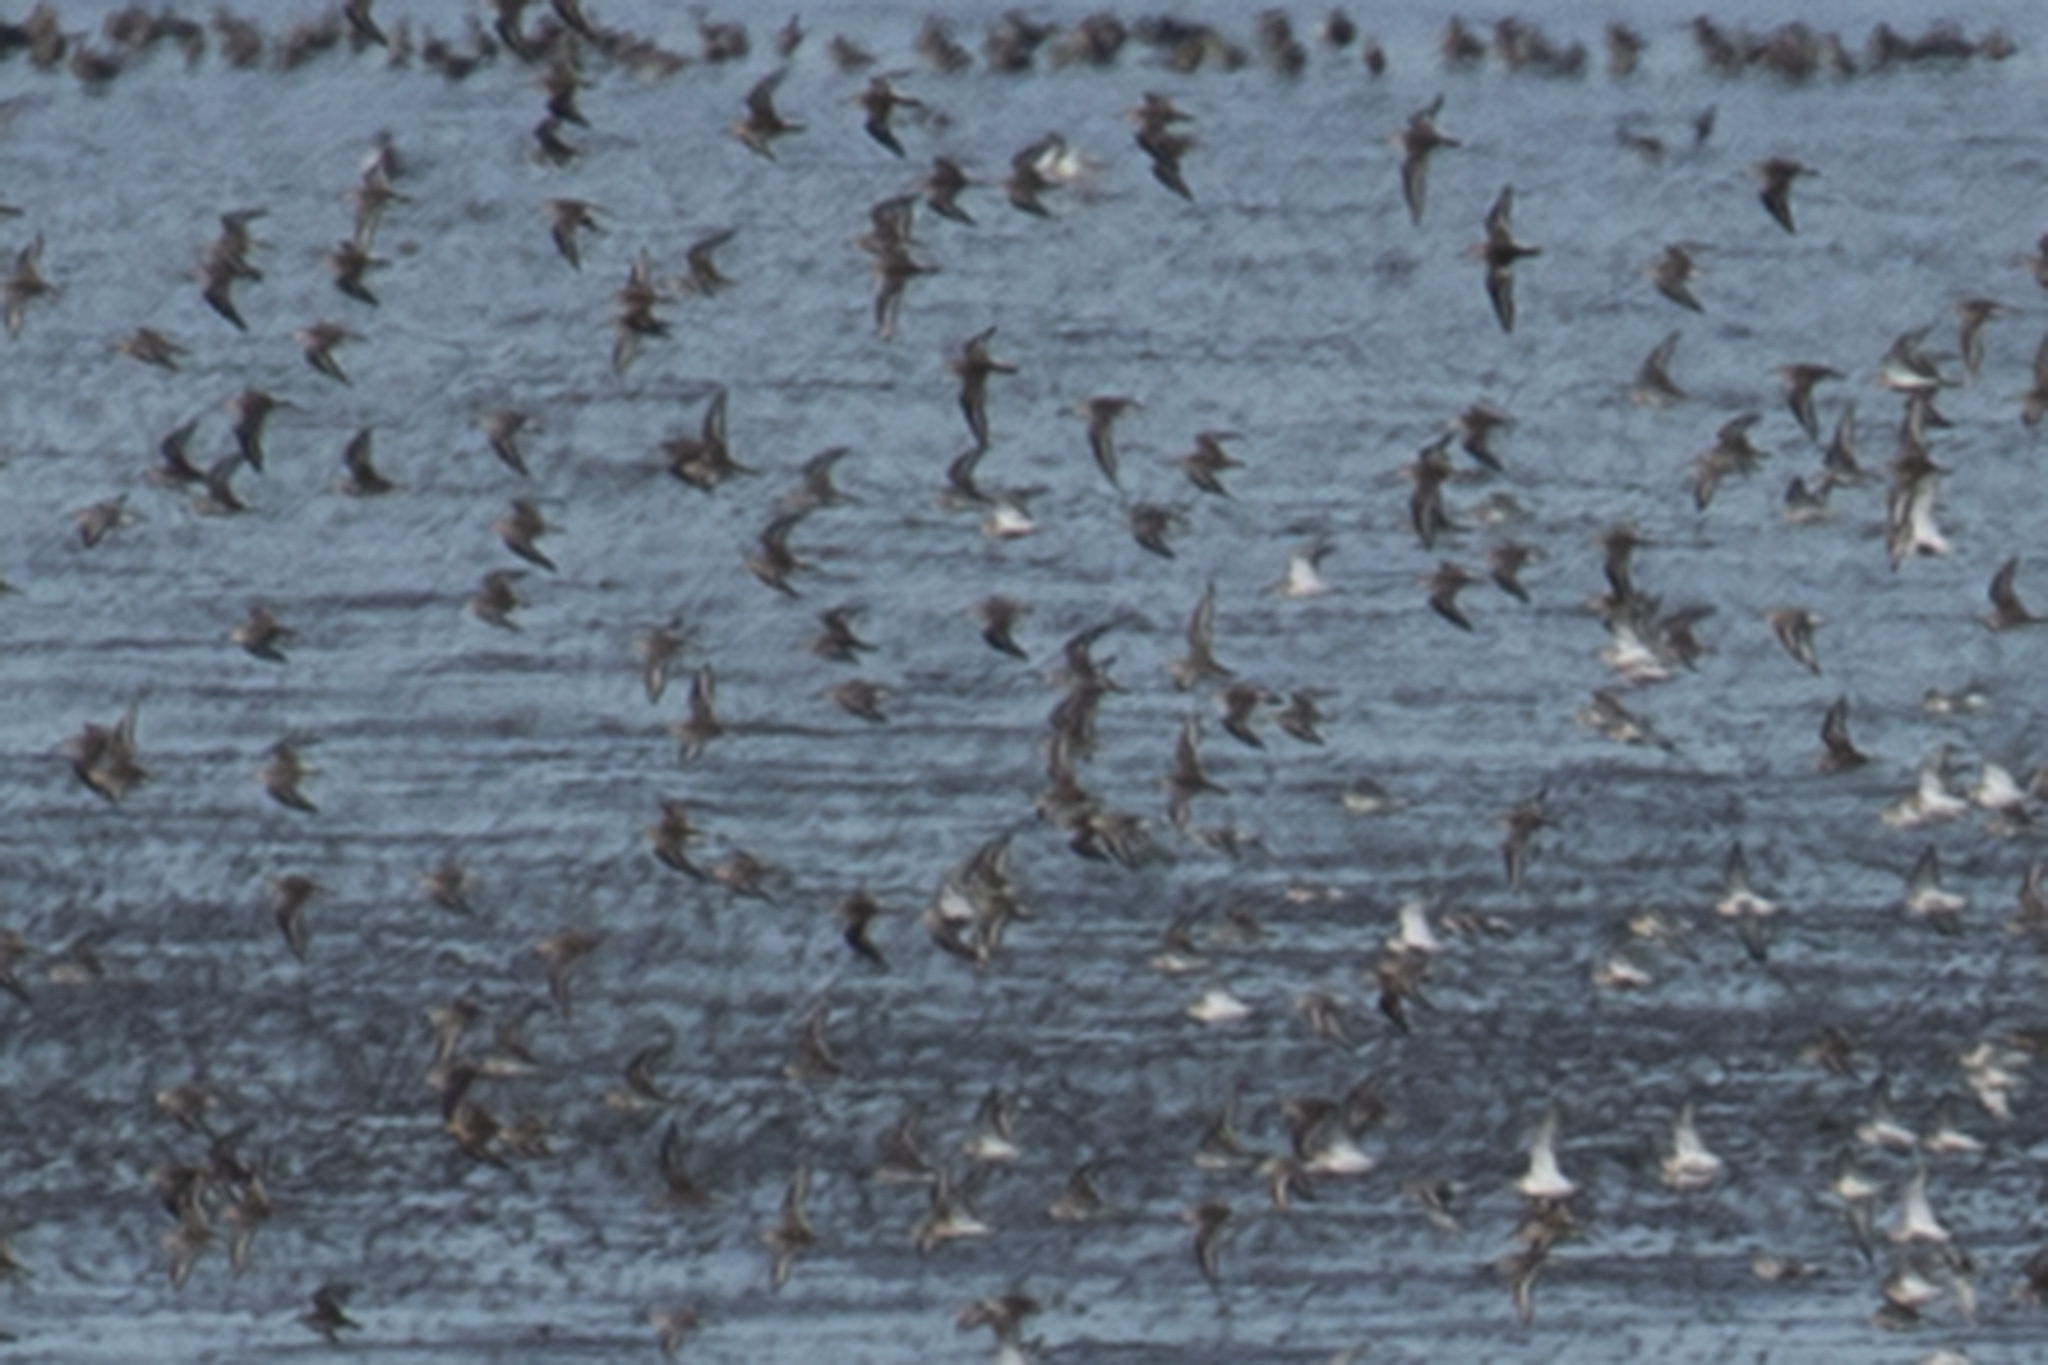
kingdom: Animalia
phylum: Chordata
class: Aves
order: Charadriiformes
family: Scolopacidae
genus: Calidris
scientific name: Calidris alpina
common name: Dunlin
